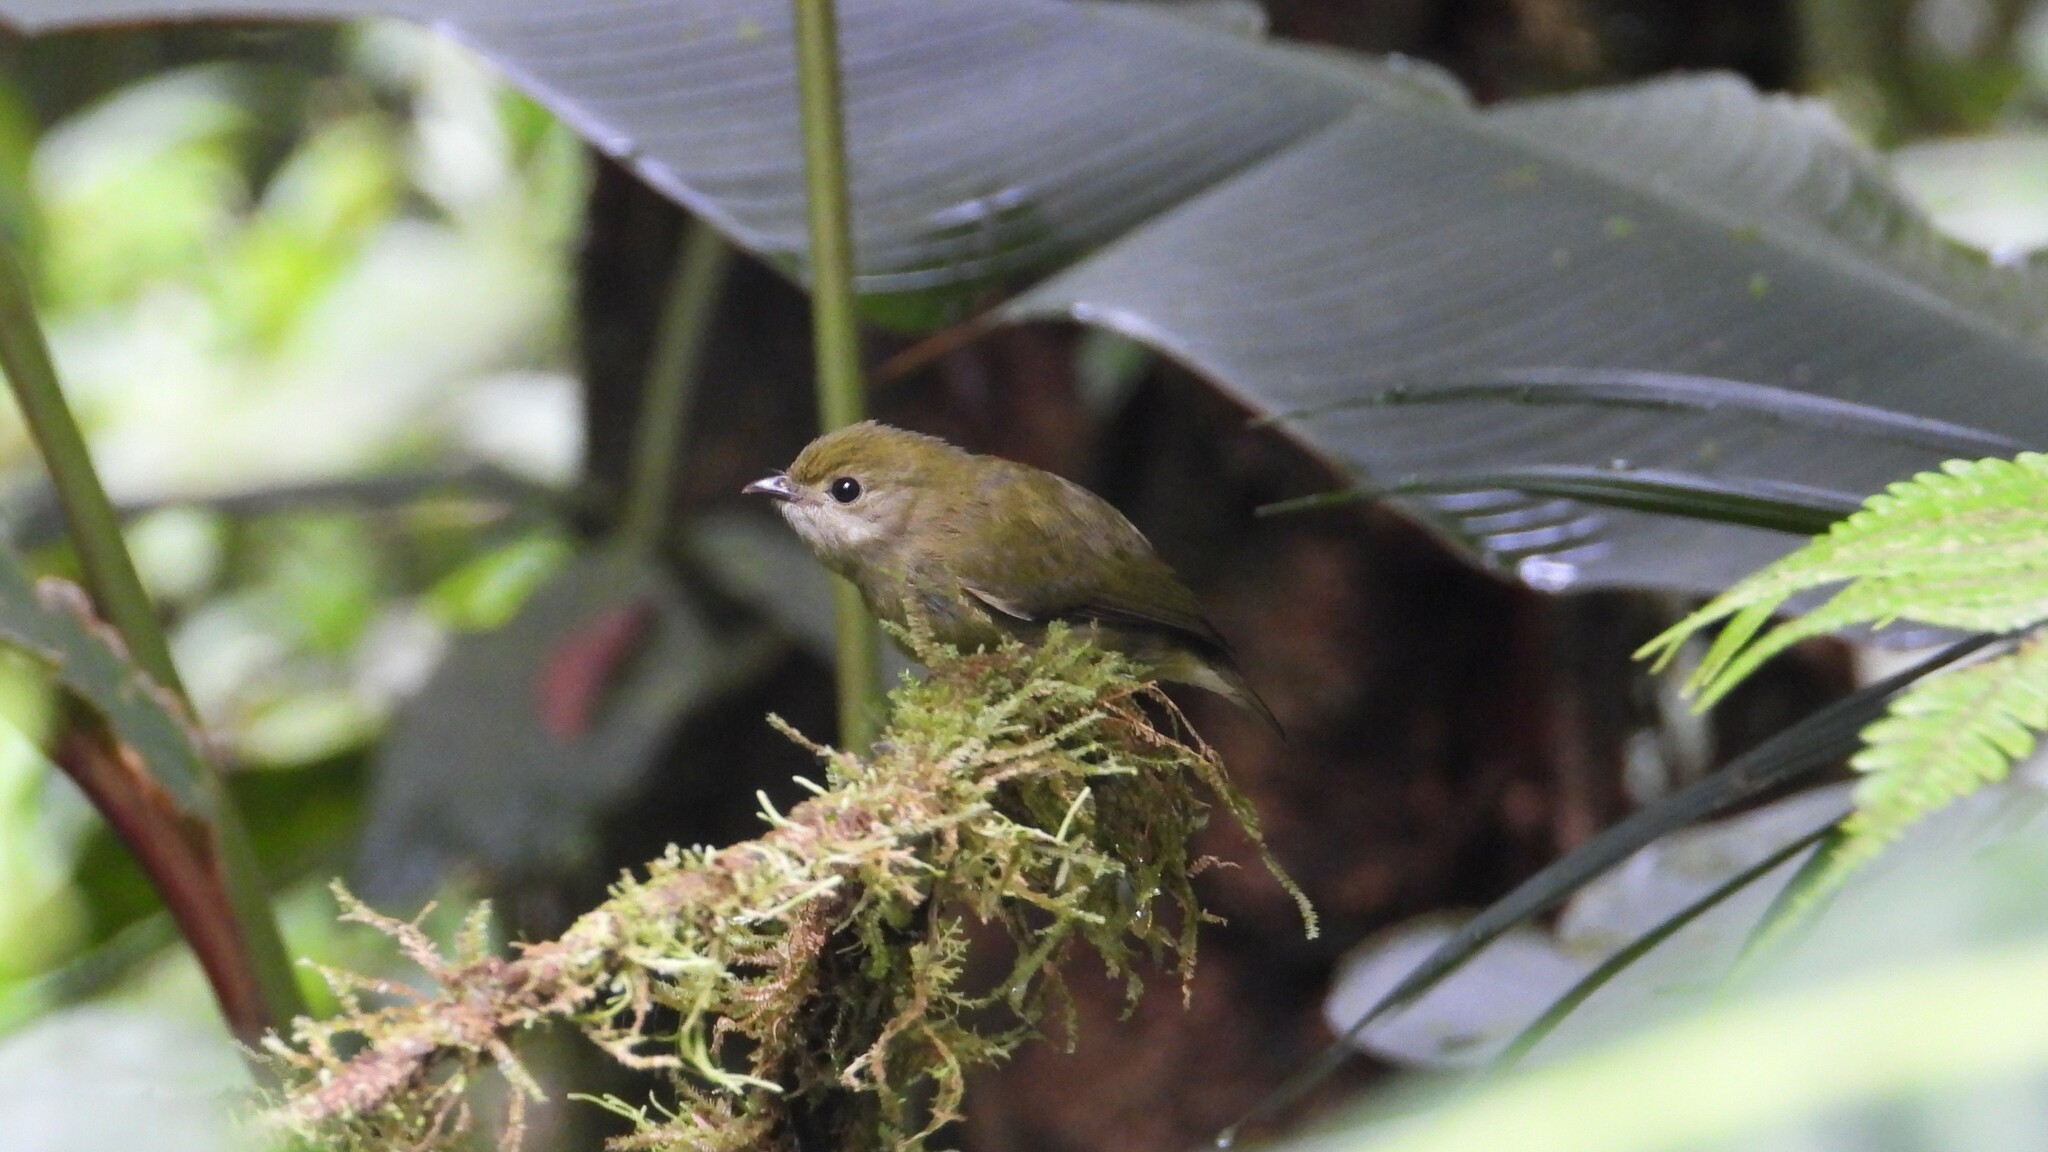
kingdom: Animalia
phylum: Chordata
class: Aves
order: Passeriformes
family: Pipridae
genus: Corapipo
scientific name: Corapipo altera
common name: White-ruffed manakin
